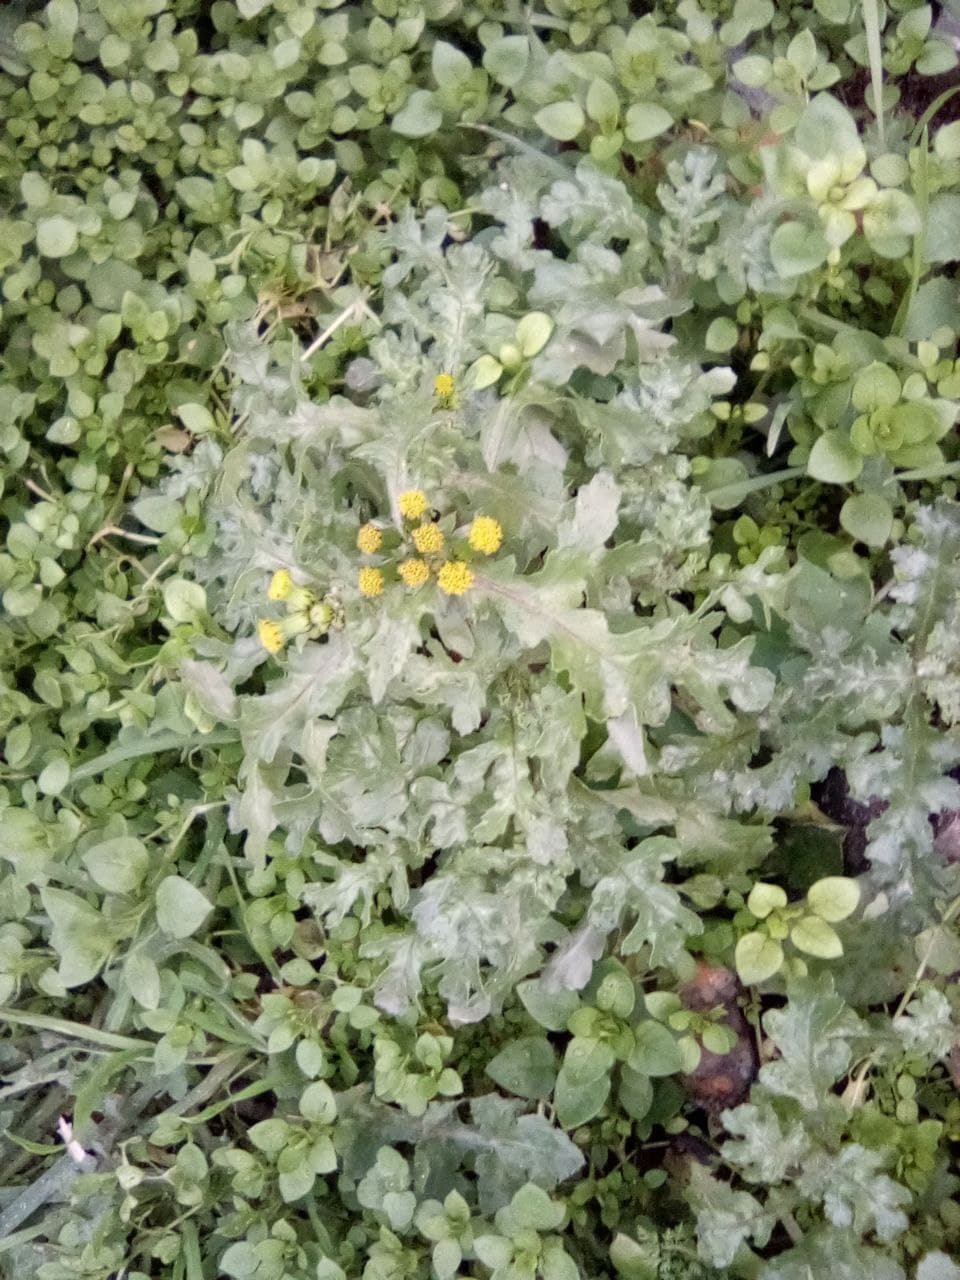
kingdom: Plantae
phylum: Tracheophyta
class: Magnoliopsida
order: Asterales
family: Asteraceae
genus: Senecio
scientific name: Senecio vulgaris
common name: Old-man-in-the-spring
